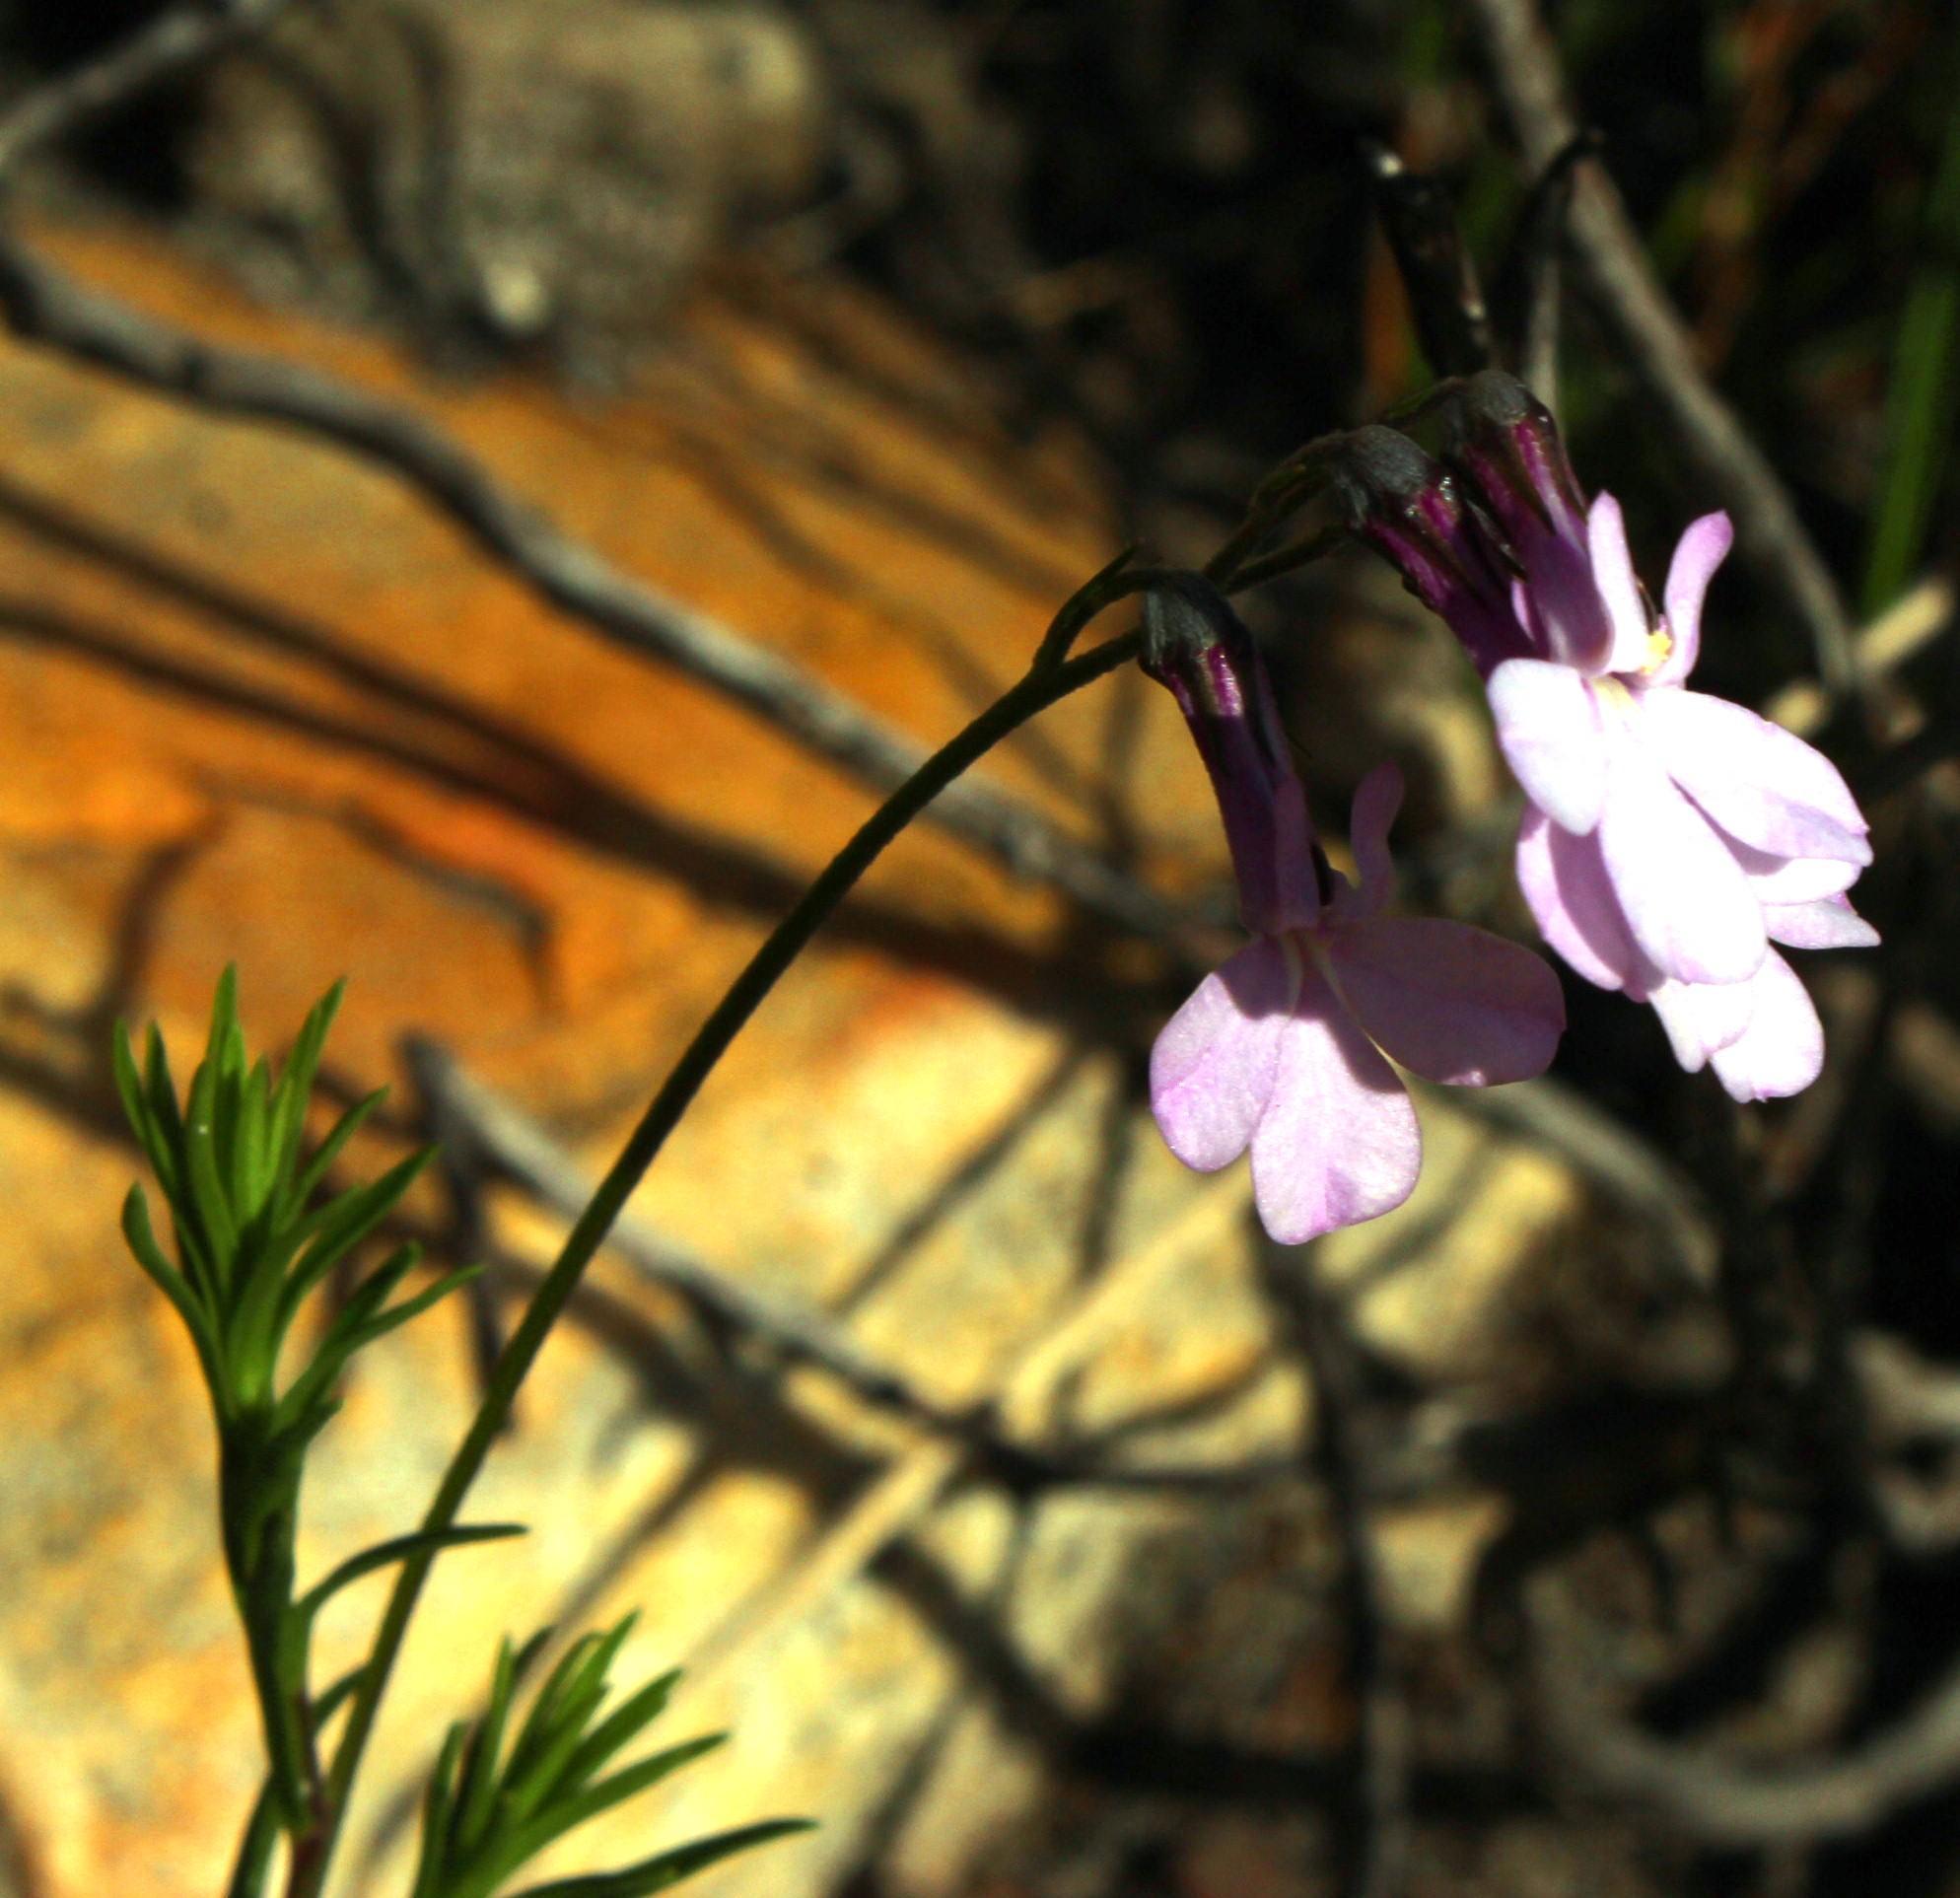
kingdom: Plantae
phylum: Tracheophyta
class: Magnoliopsida
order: Asterales
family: Campanulaceae
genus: Lobelia
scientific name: Lobelia pinifolia
